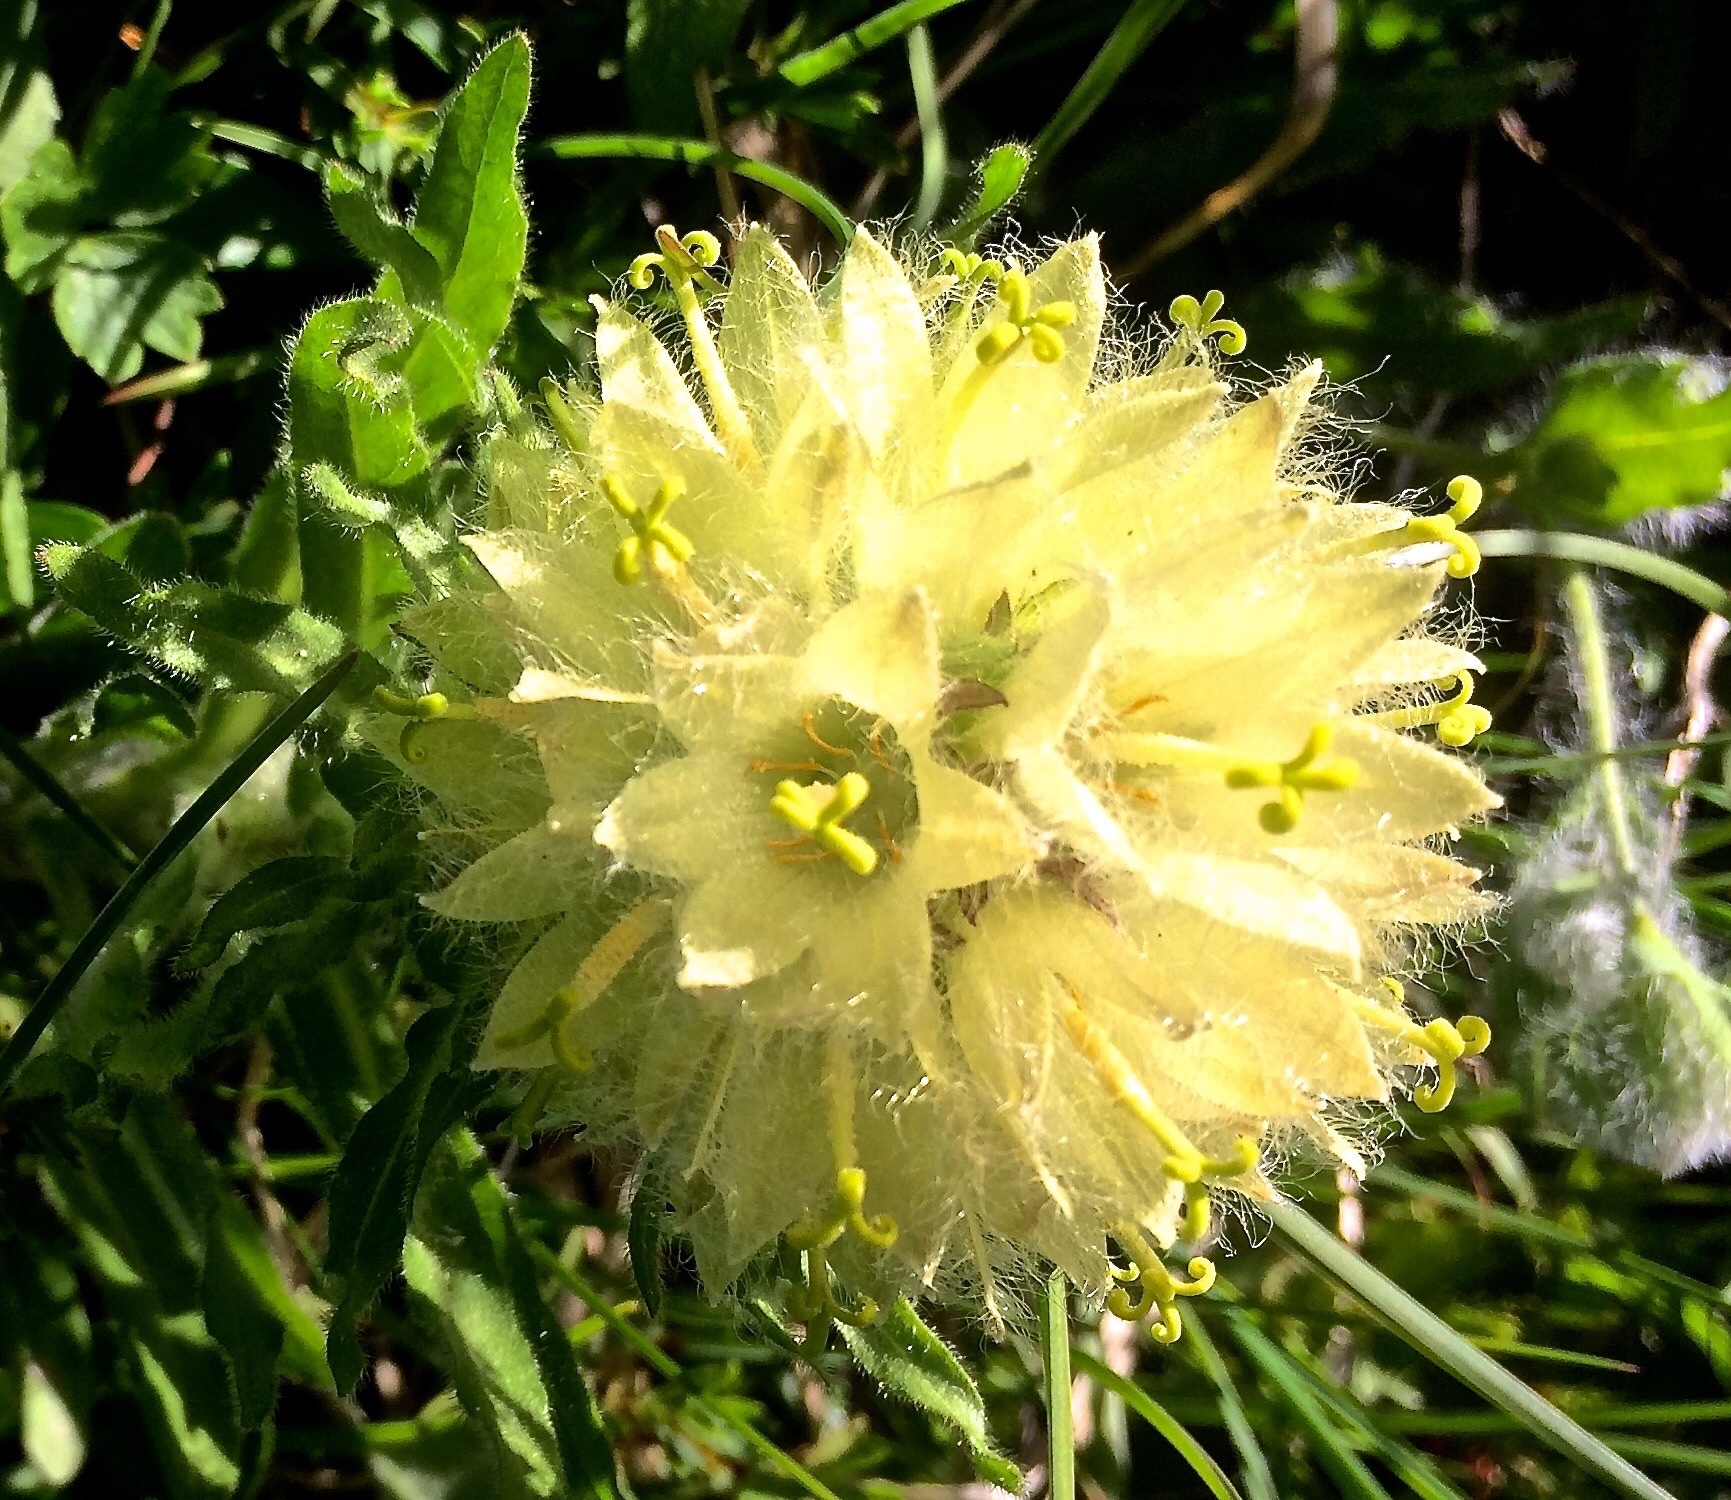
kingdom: Plantae
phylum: Tracheophyta
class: Magnoliopsida
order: Asterales
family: Campanulaceae
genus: Campanula
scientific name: Campanula thyrsoides
